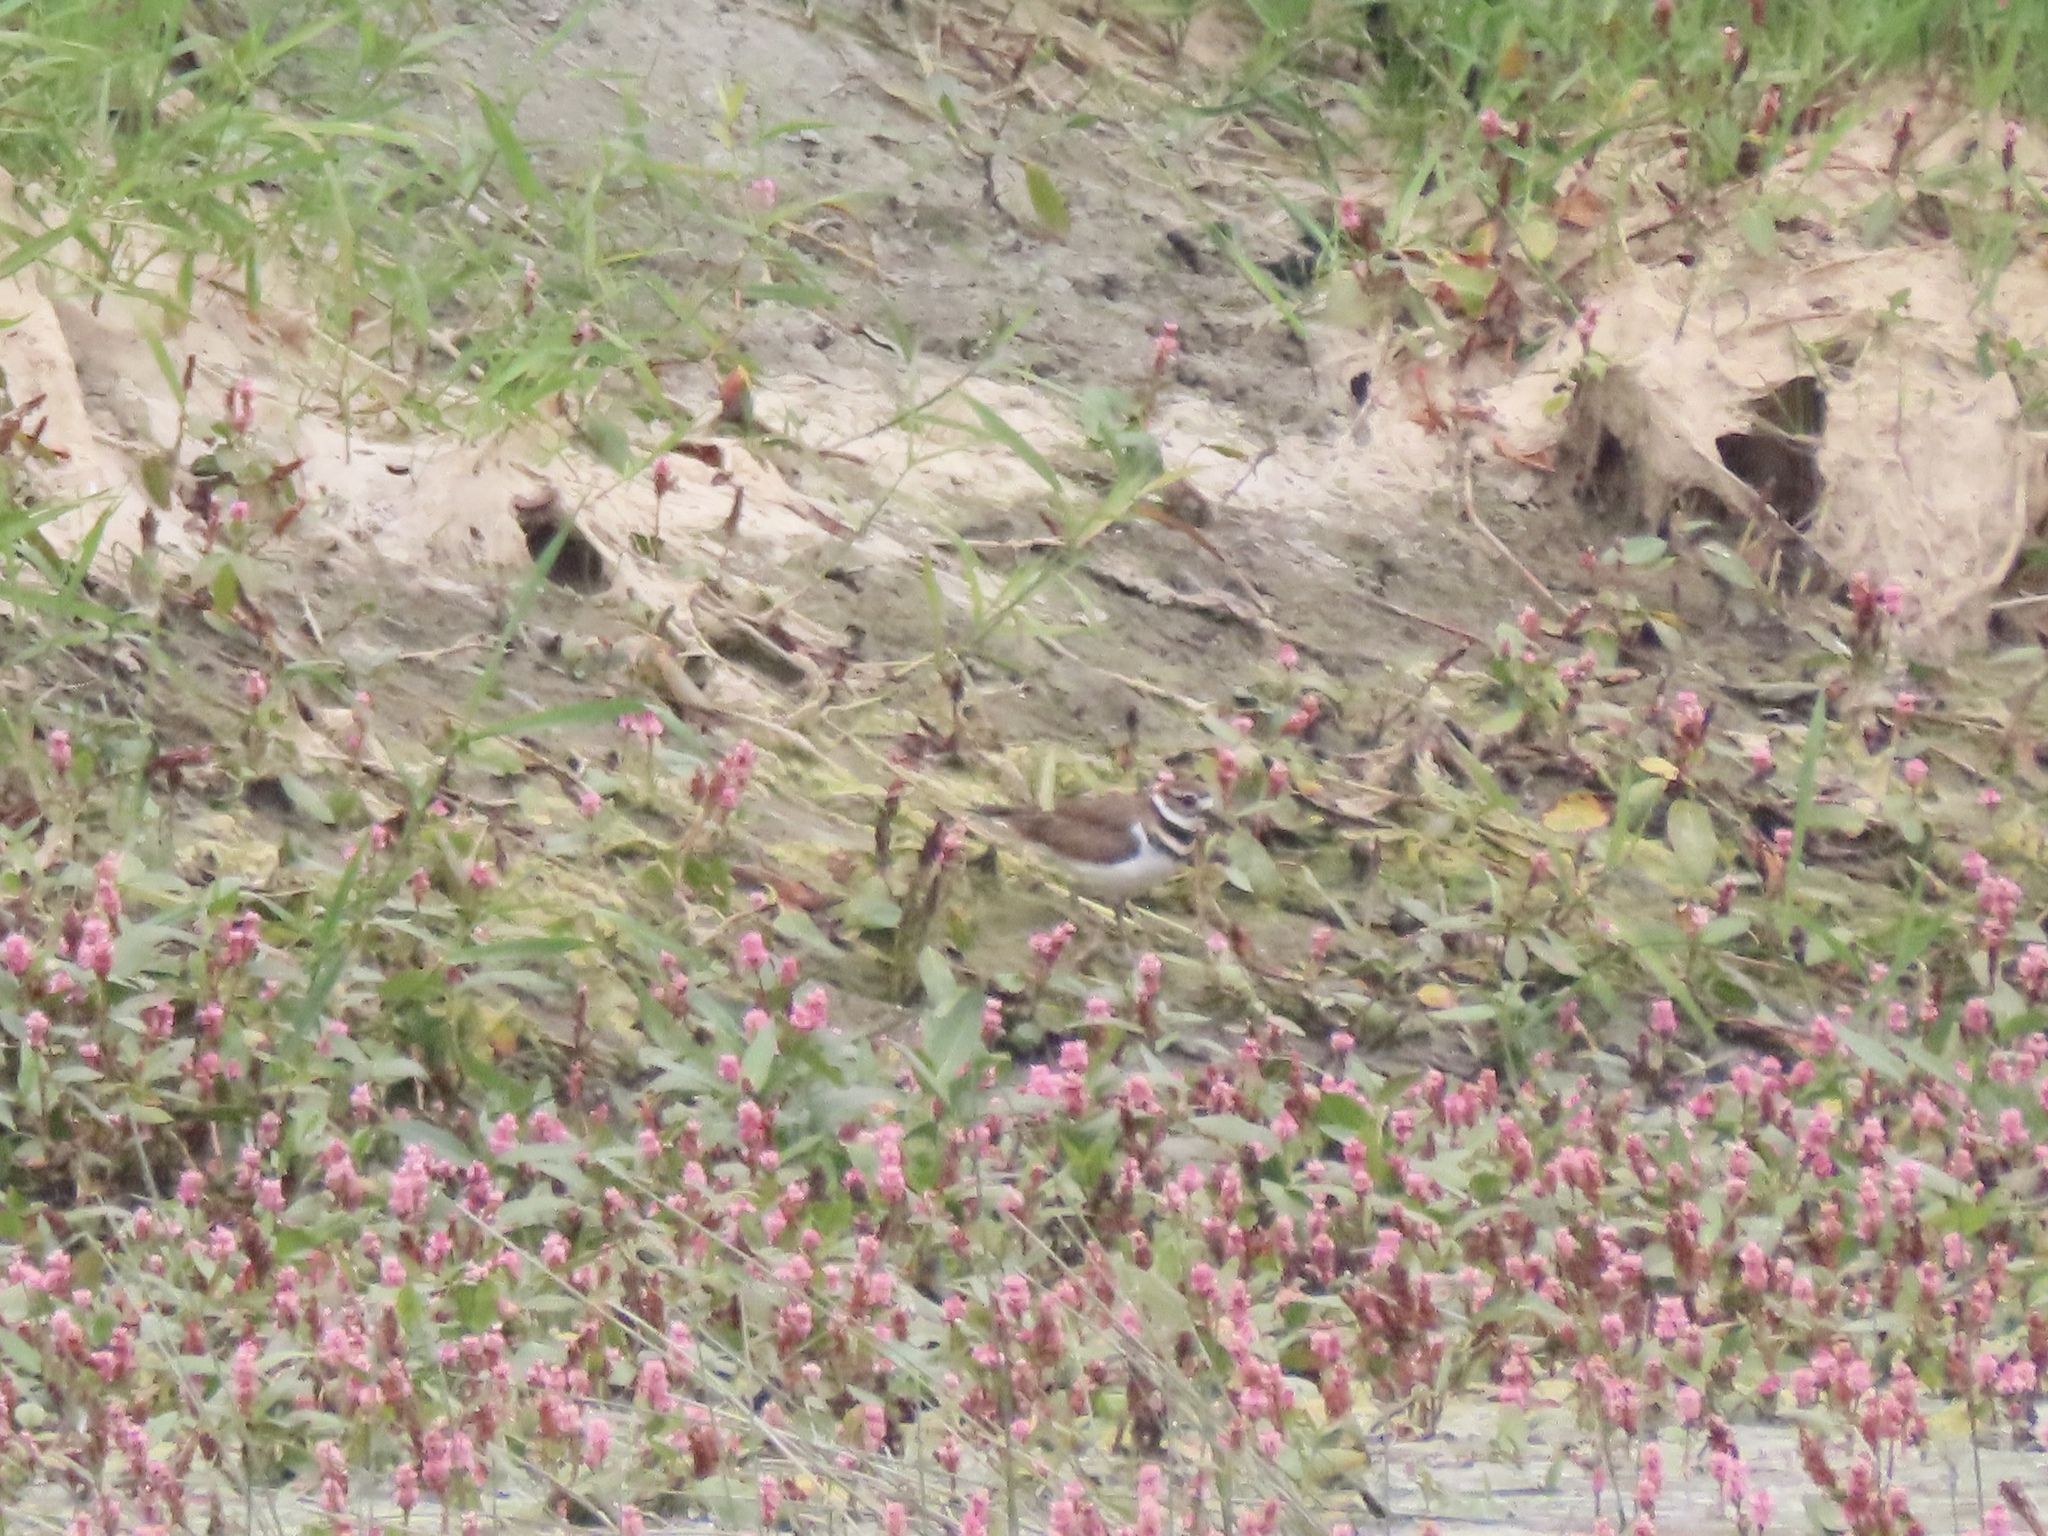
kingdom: Animalia
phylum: Chordata
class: Aves
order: Charadriiformes
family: Charadriidae
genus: Charadrius
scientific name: Charadrius vociferus
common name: Killdeer
